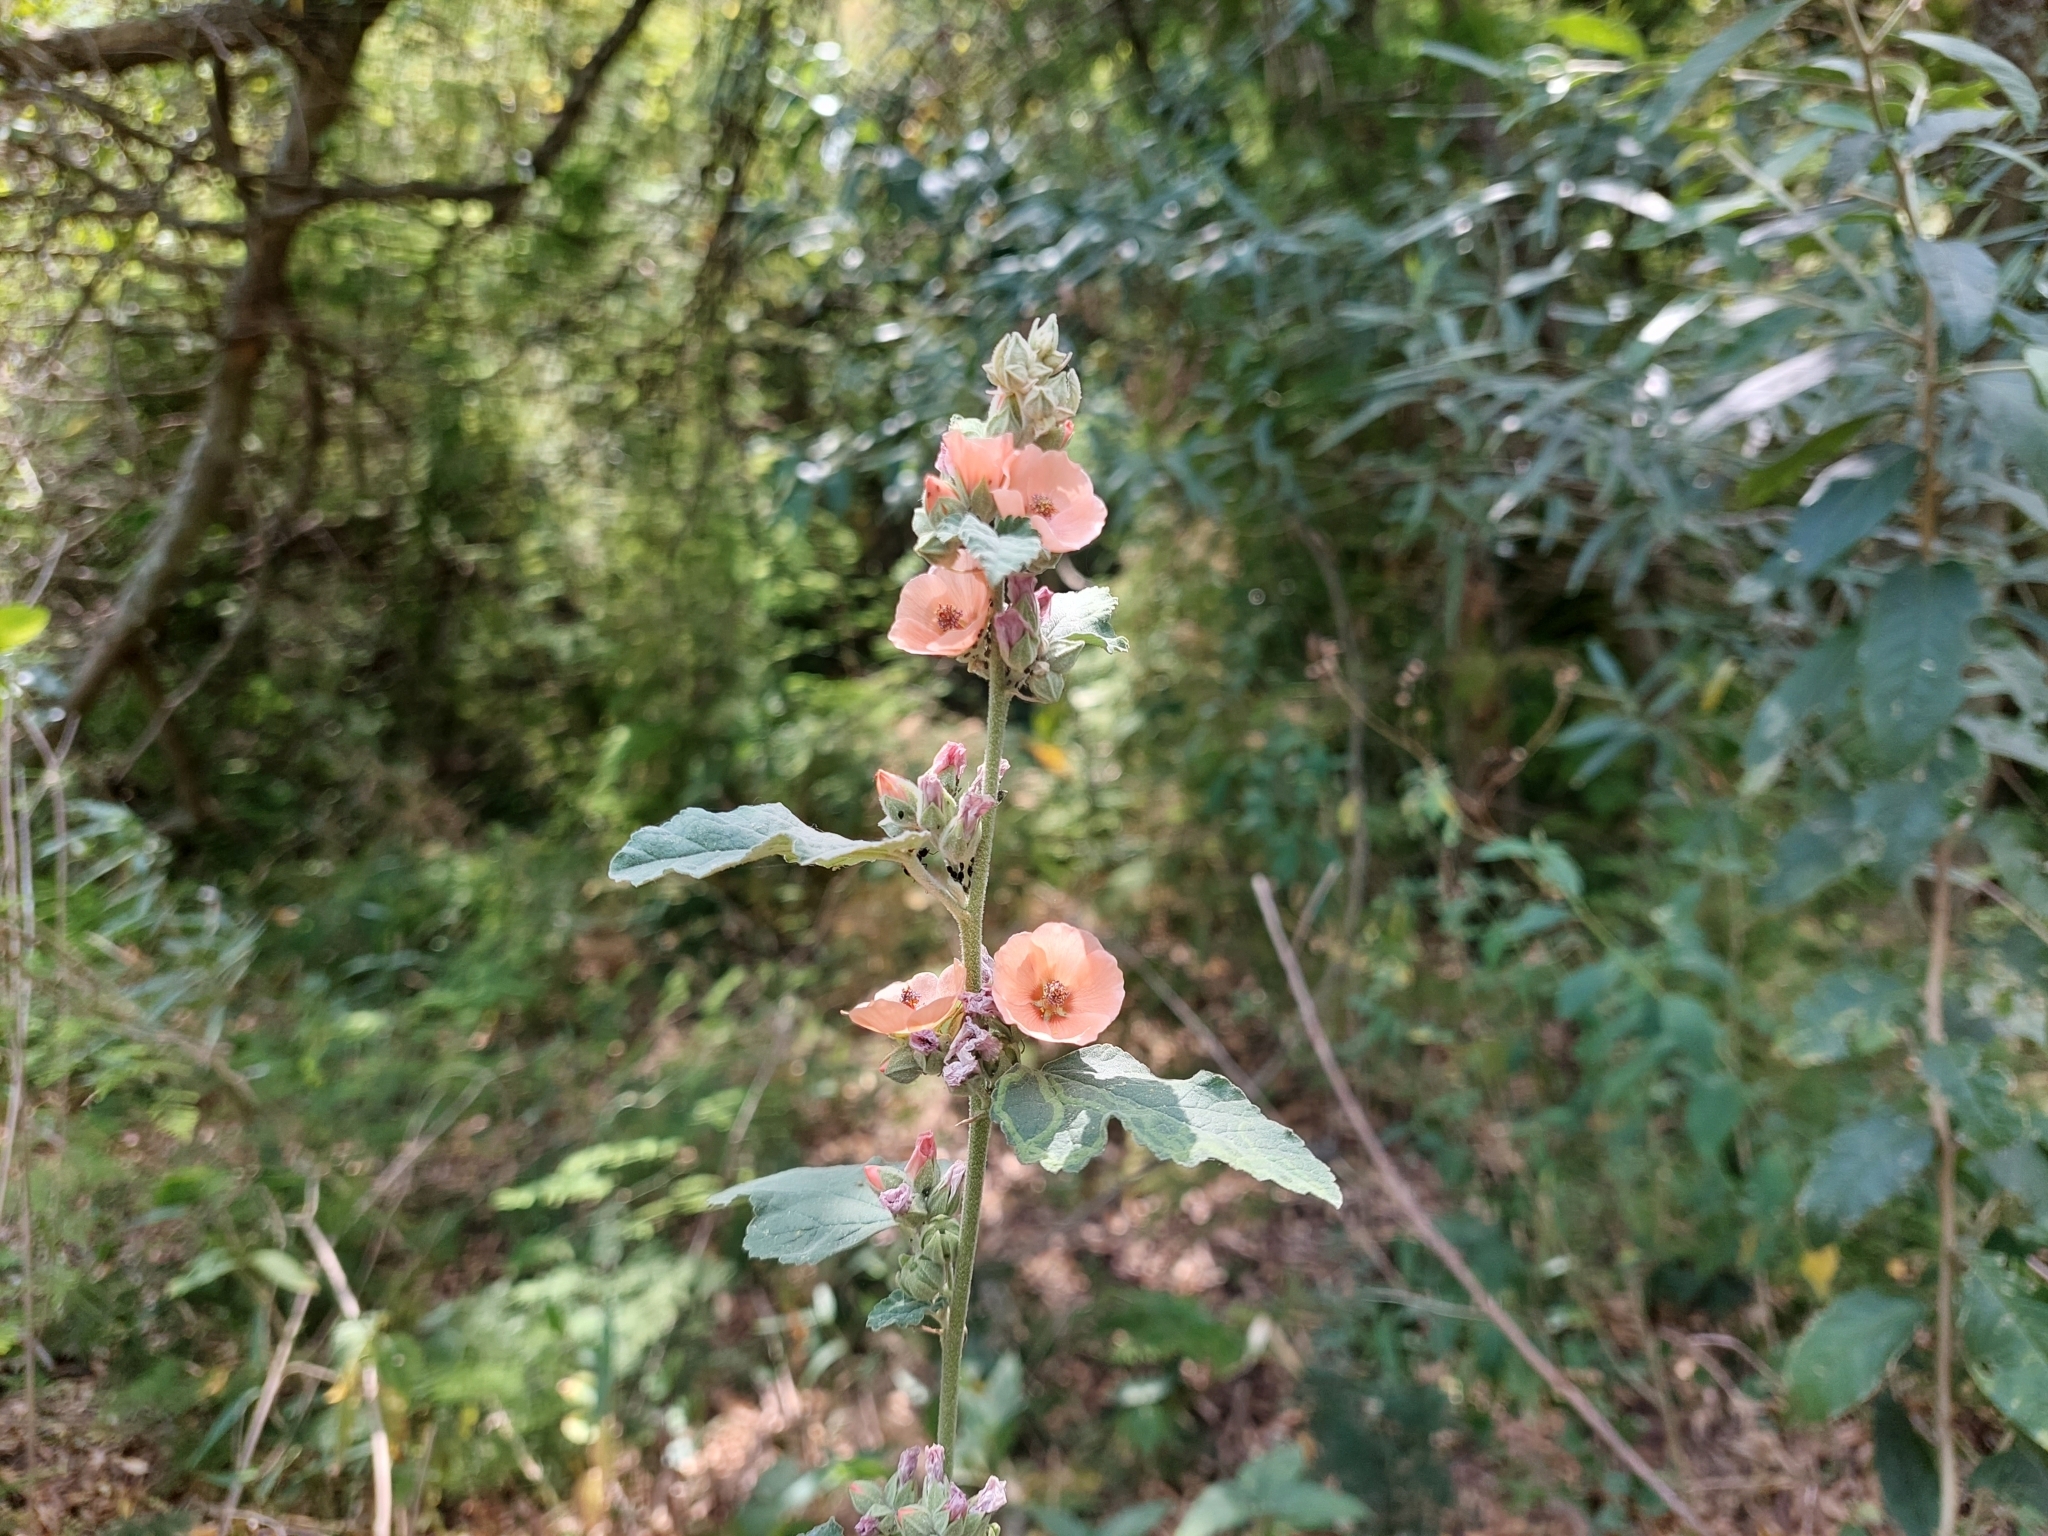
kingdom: Plantae
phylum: Tracheophyta
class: Magnoliopsida
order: Malvales
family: Malvaceae
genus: Sphaeralcea
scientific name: Sphaeralcea bonariensis
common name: Latin globemallow
